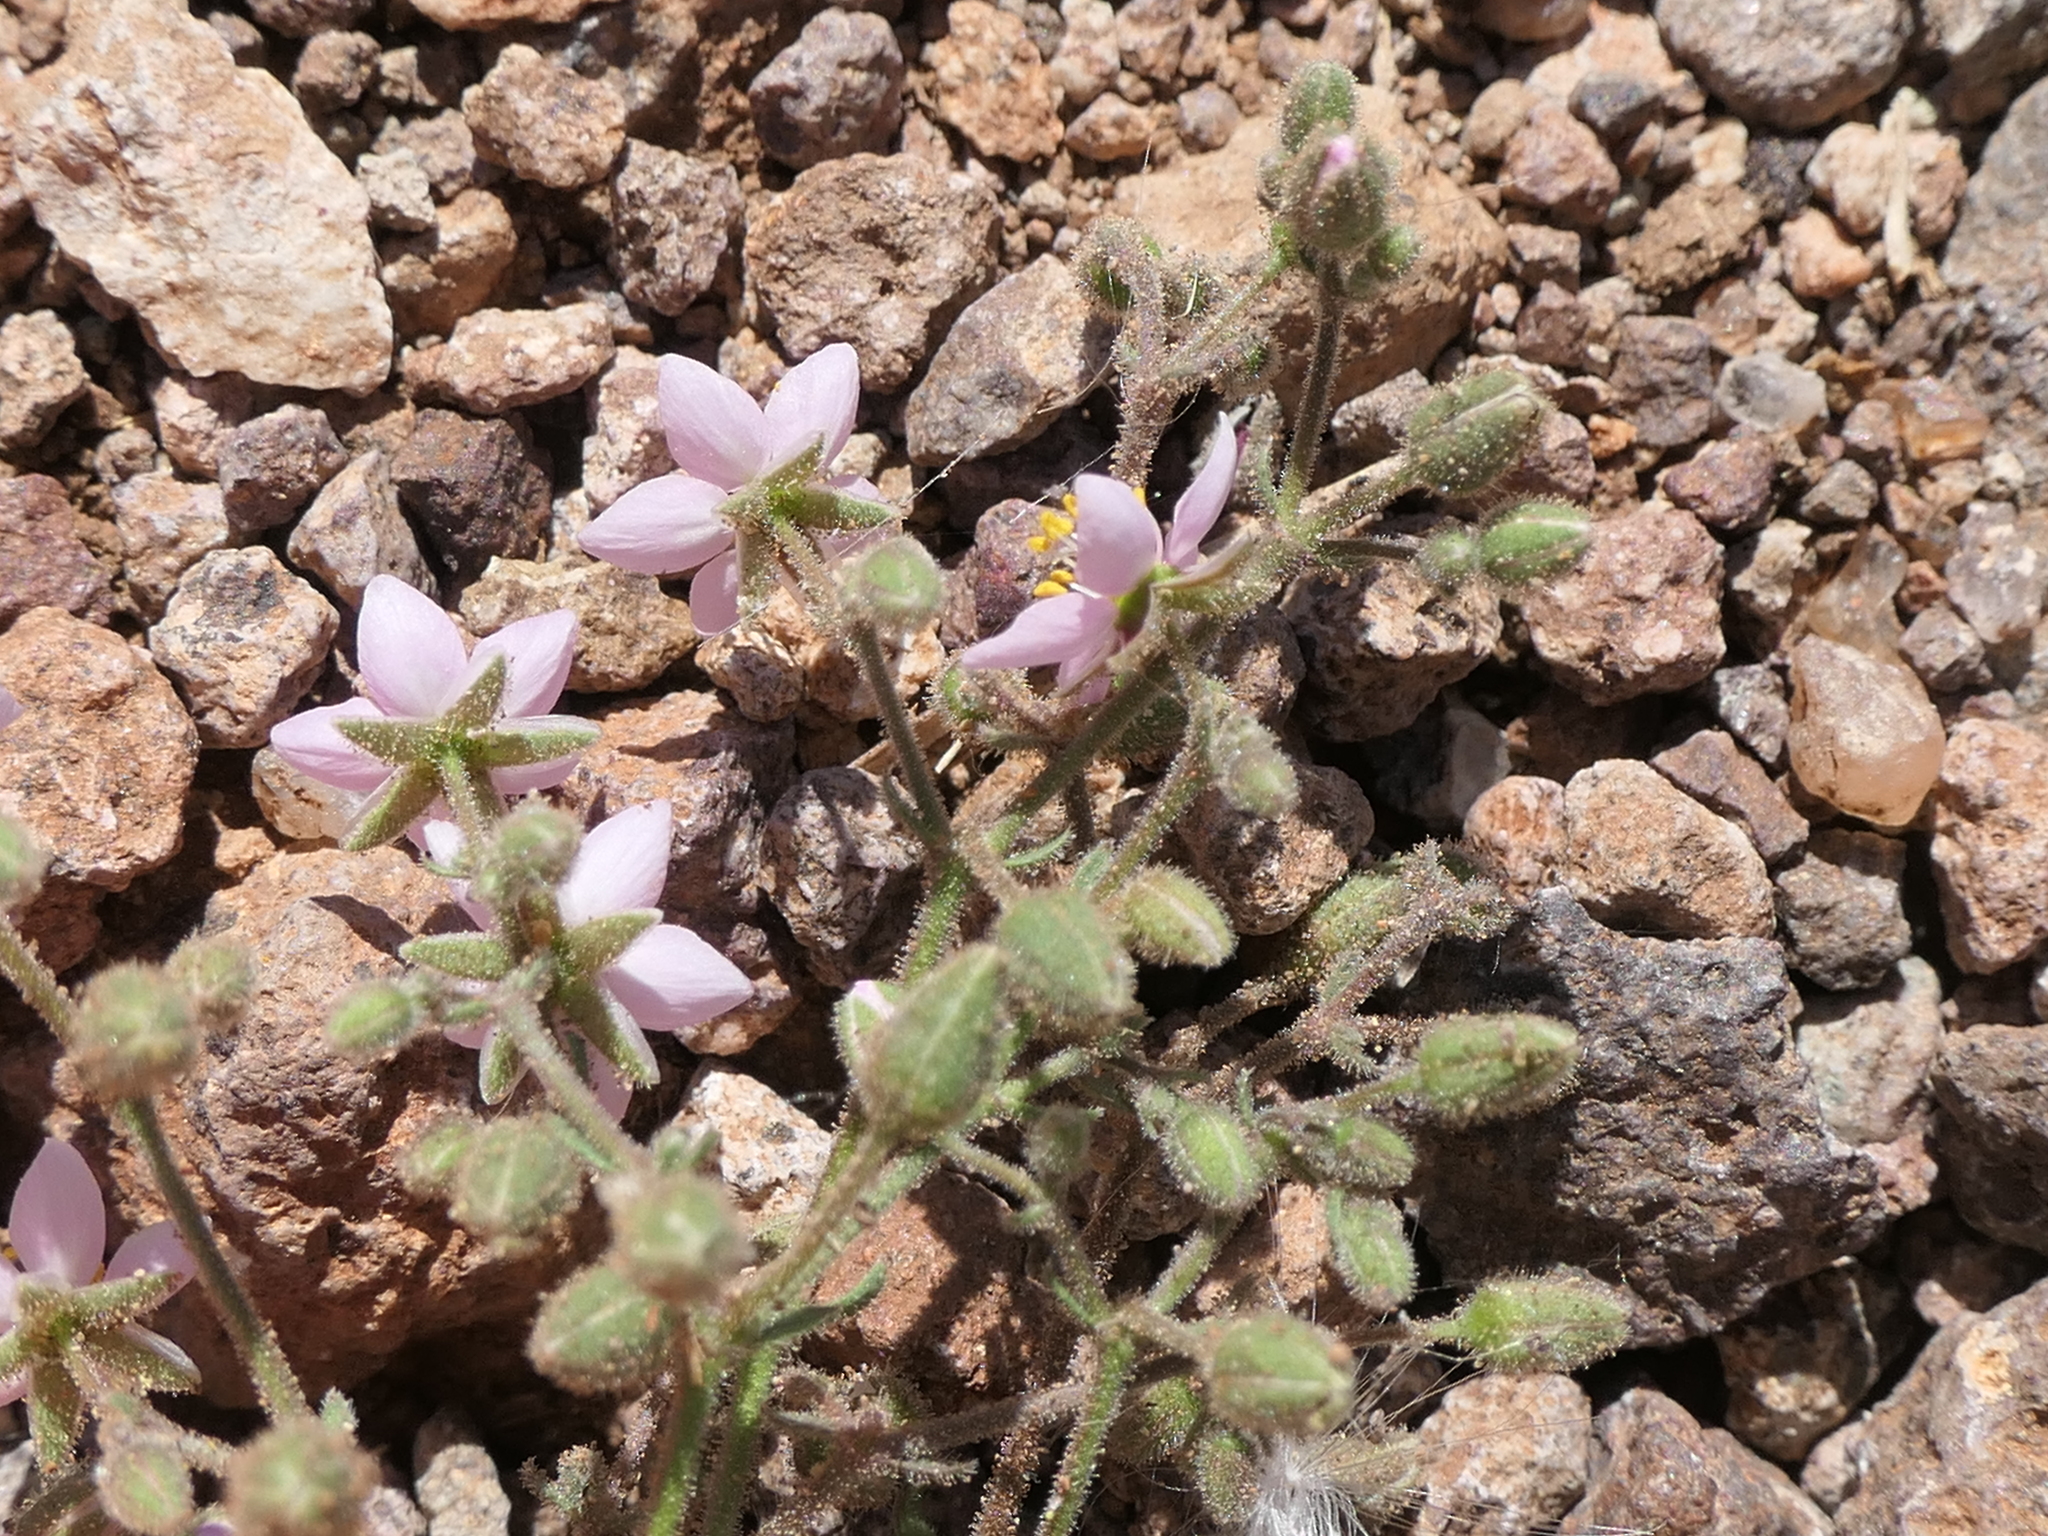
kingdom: Plantae
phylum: Tracheophyta
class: Magnoliopsida
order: Caryophyllales
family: Caryophyllaceae
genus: Rhodalsine
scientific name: Rhodalsine geniculata
